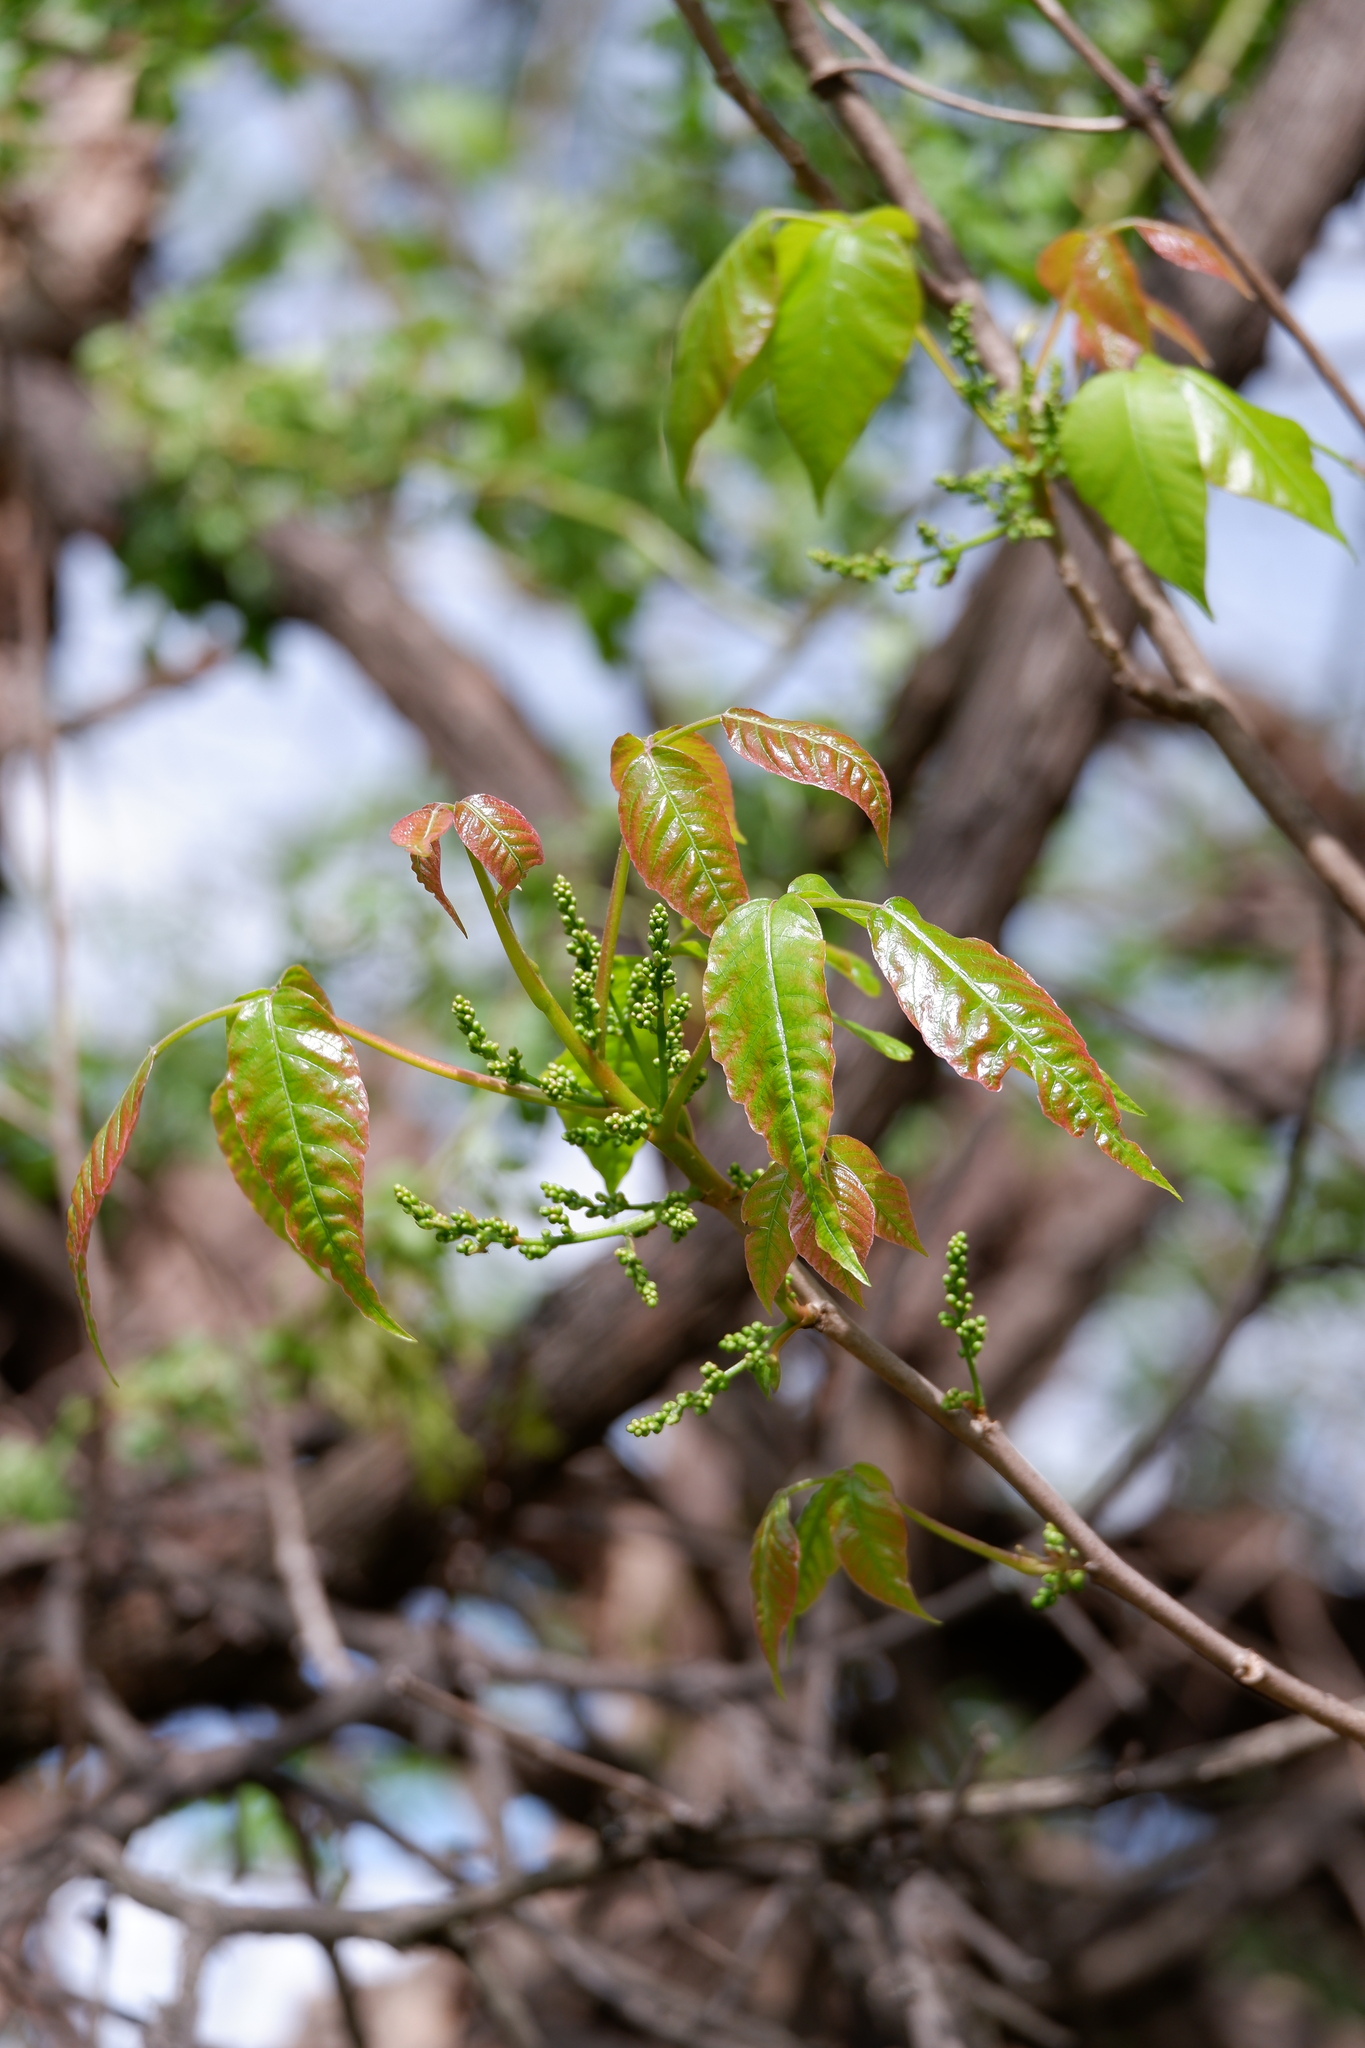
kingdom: Plantae
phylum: Tracheophyta
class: Magnoliopsida
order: Sapindales
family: Anacardiaceae
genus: Toxicodendron
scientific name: Toxicodendron radicans
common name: Poison ivy
